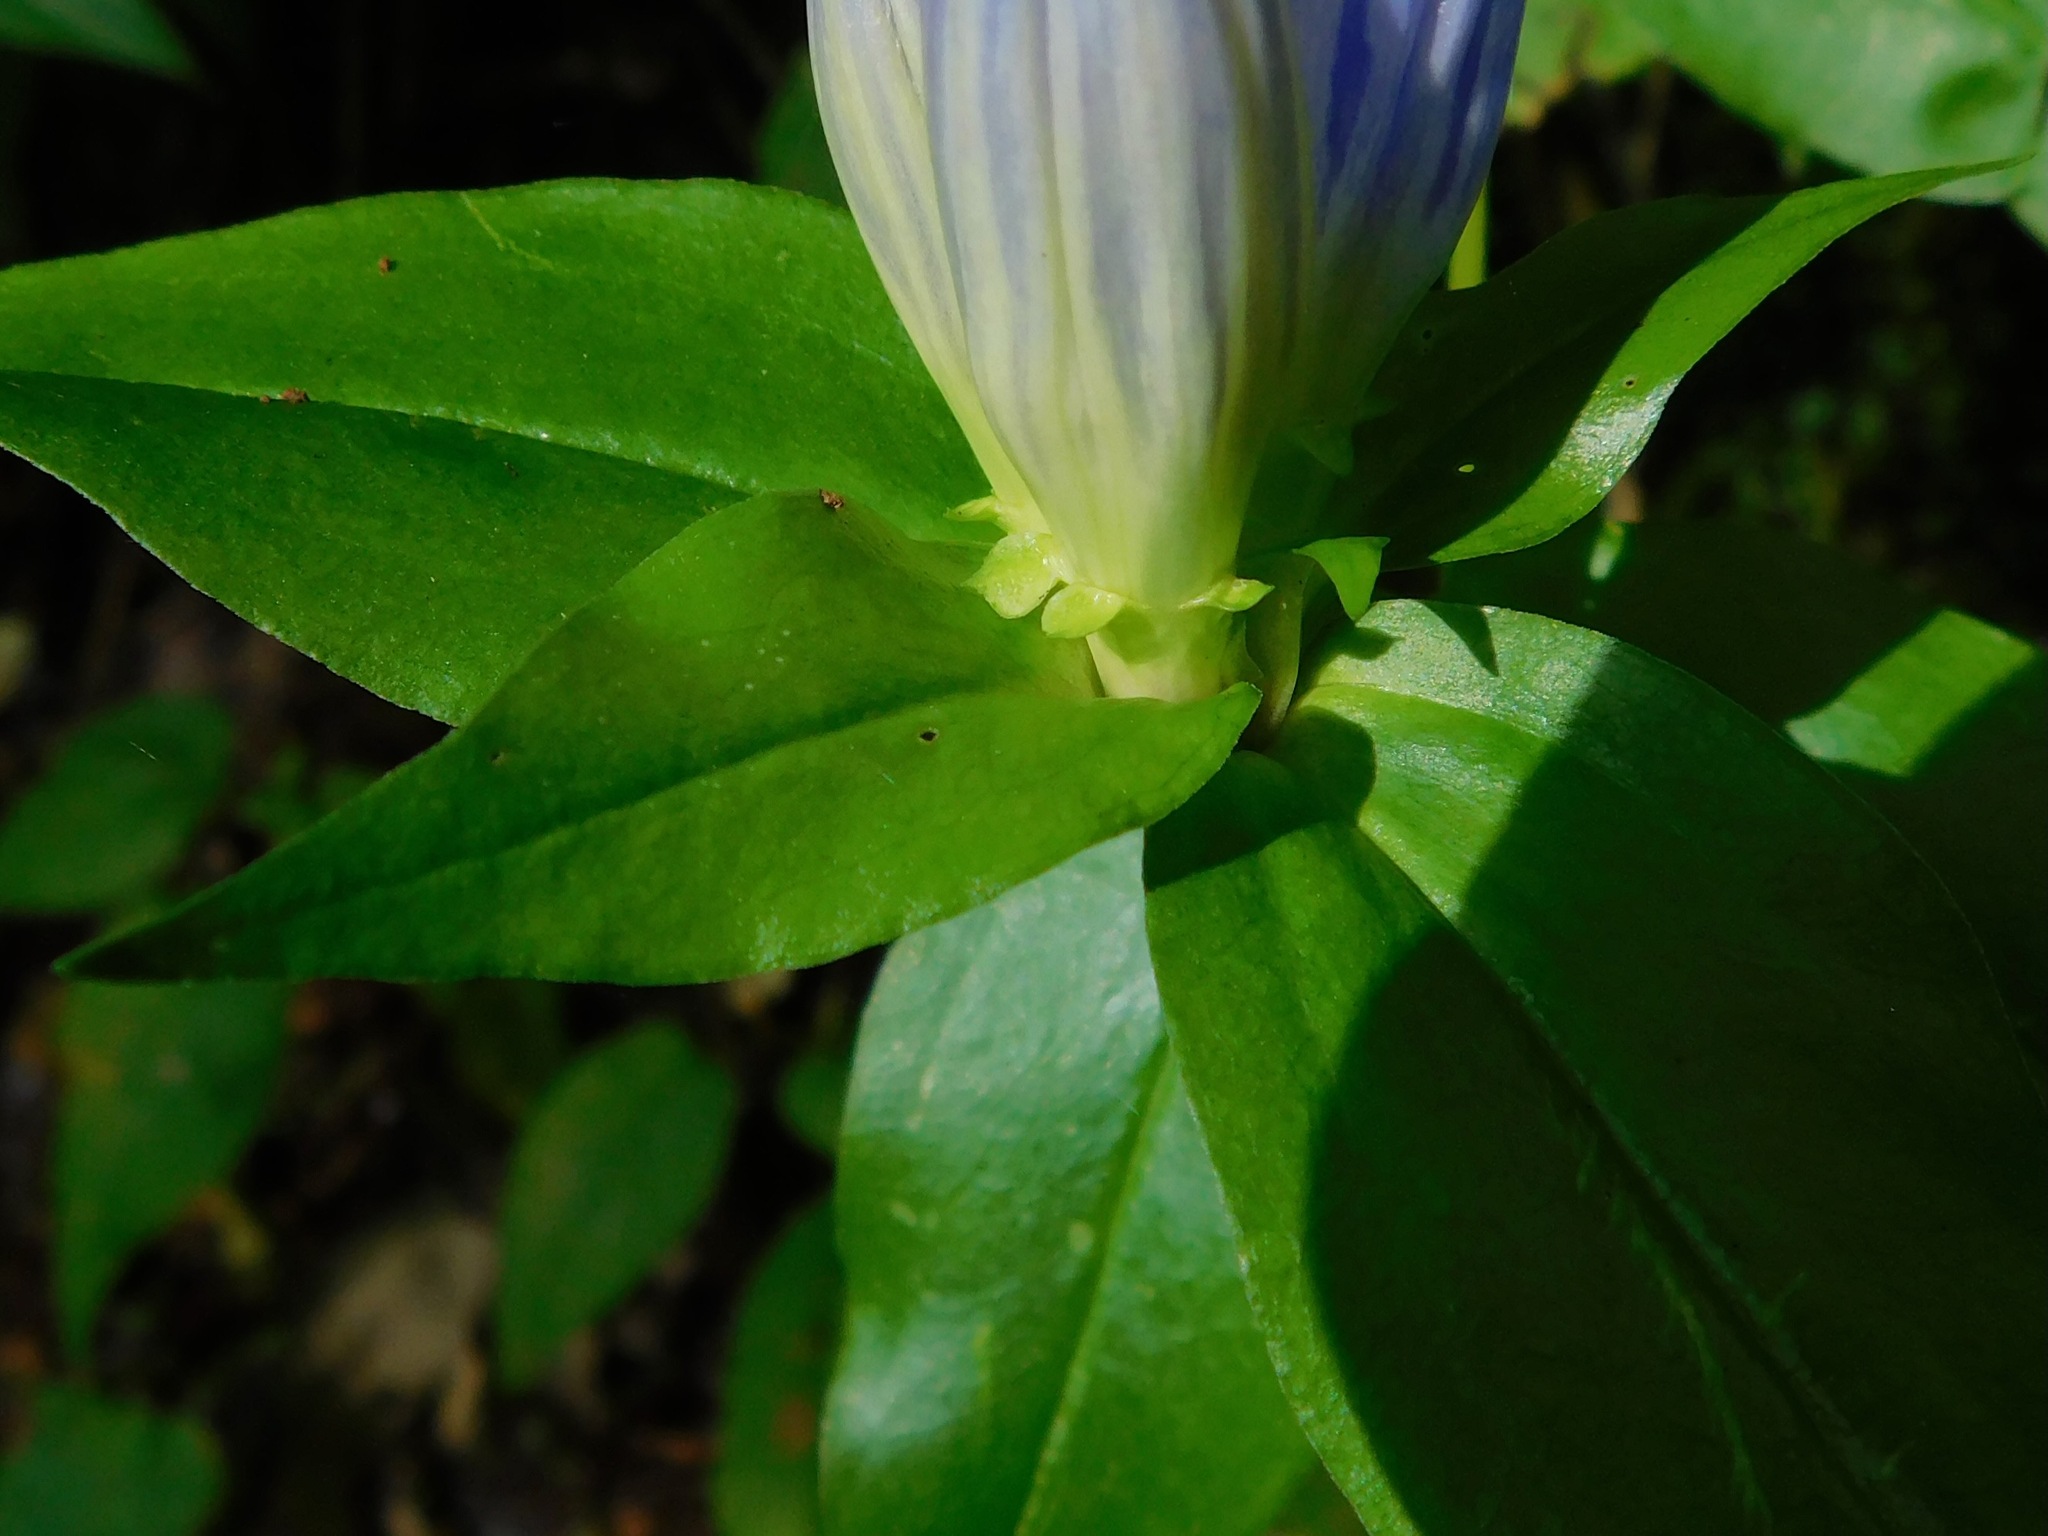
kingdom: Plantae
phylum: Tracheophyta
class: Magnoliopsida
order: Gentianales
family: Gentianaceae
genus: Gentiana
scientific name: Gentiana latidens
